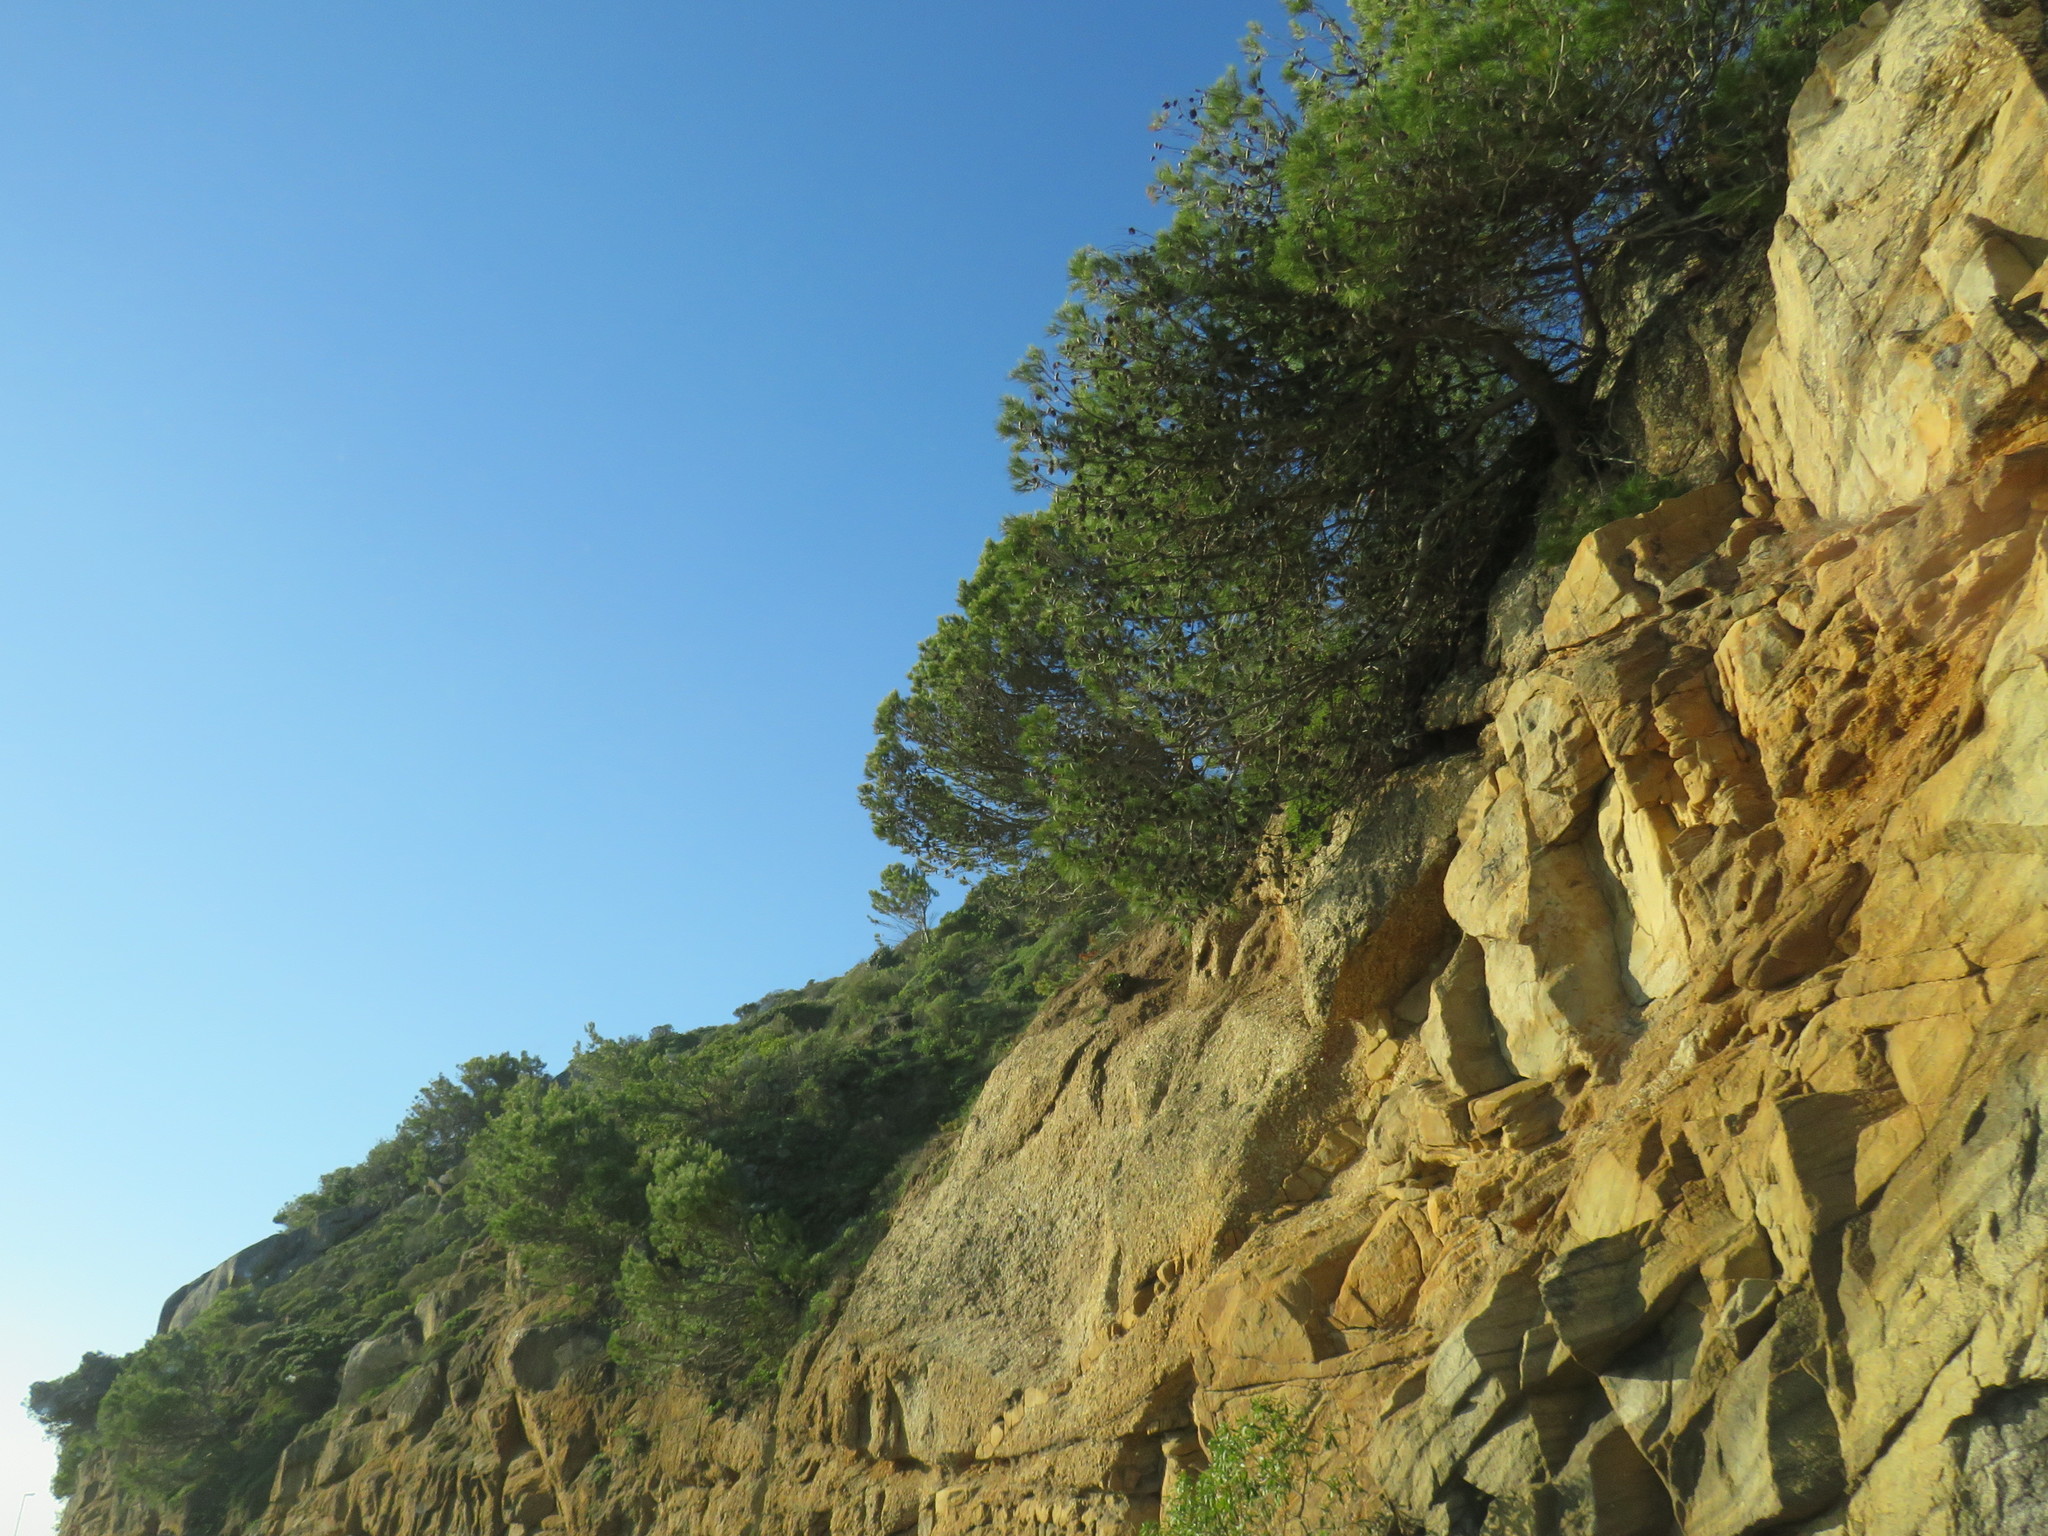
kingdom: Plantae
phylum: Tracheophyta
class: Pinopsida
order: Pinales
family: Pinaceae
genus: Pinus
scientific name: Pinus halepensis
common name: Aleppo pine
